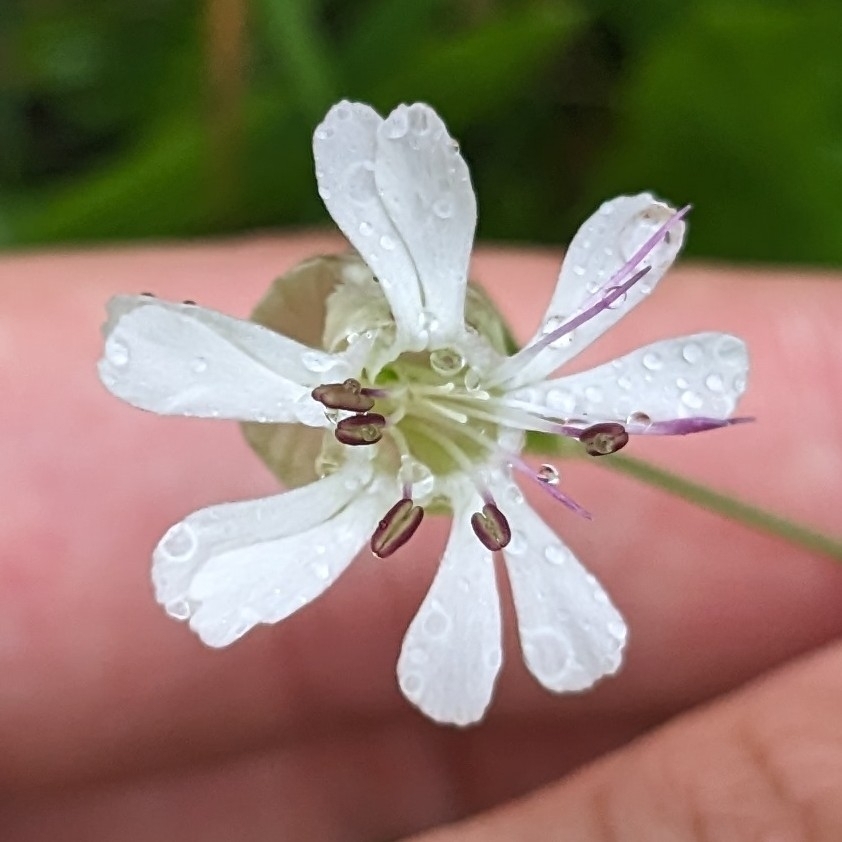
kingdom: Plantae
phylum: Tracheophyta
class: Magnoliopsida
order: Caryophyllales
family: Caryophyllaceae
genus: Silene
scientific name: Silene vulgaris
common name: Bladder campion
